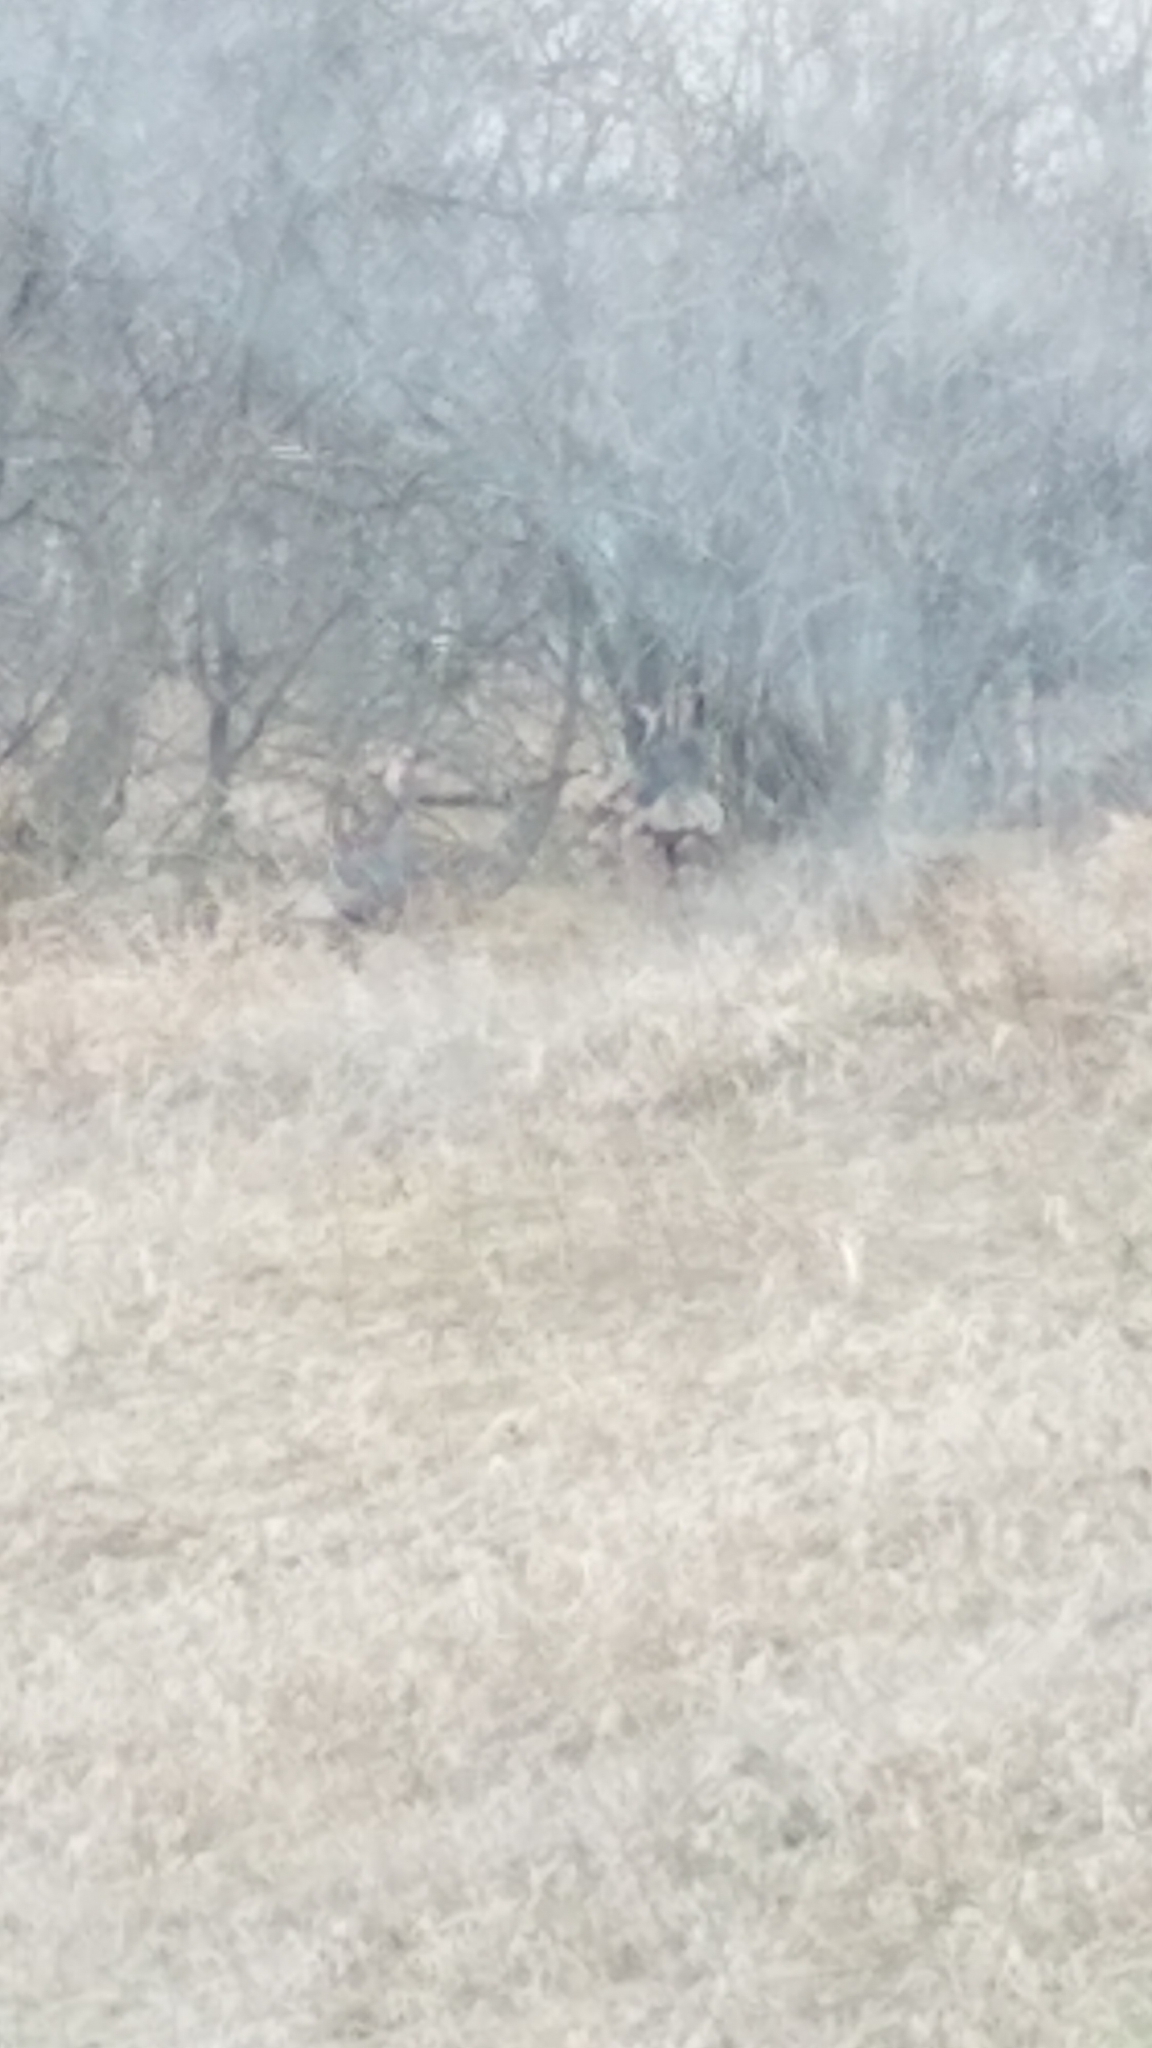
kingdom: Animalia
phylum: Chordata
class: Aves
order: Galliformes
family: Phasianidae
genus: Meleagris
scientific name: Meleagris gallopavo
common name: Wild turkey
